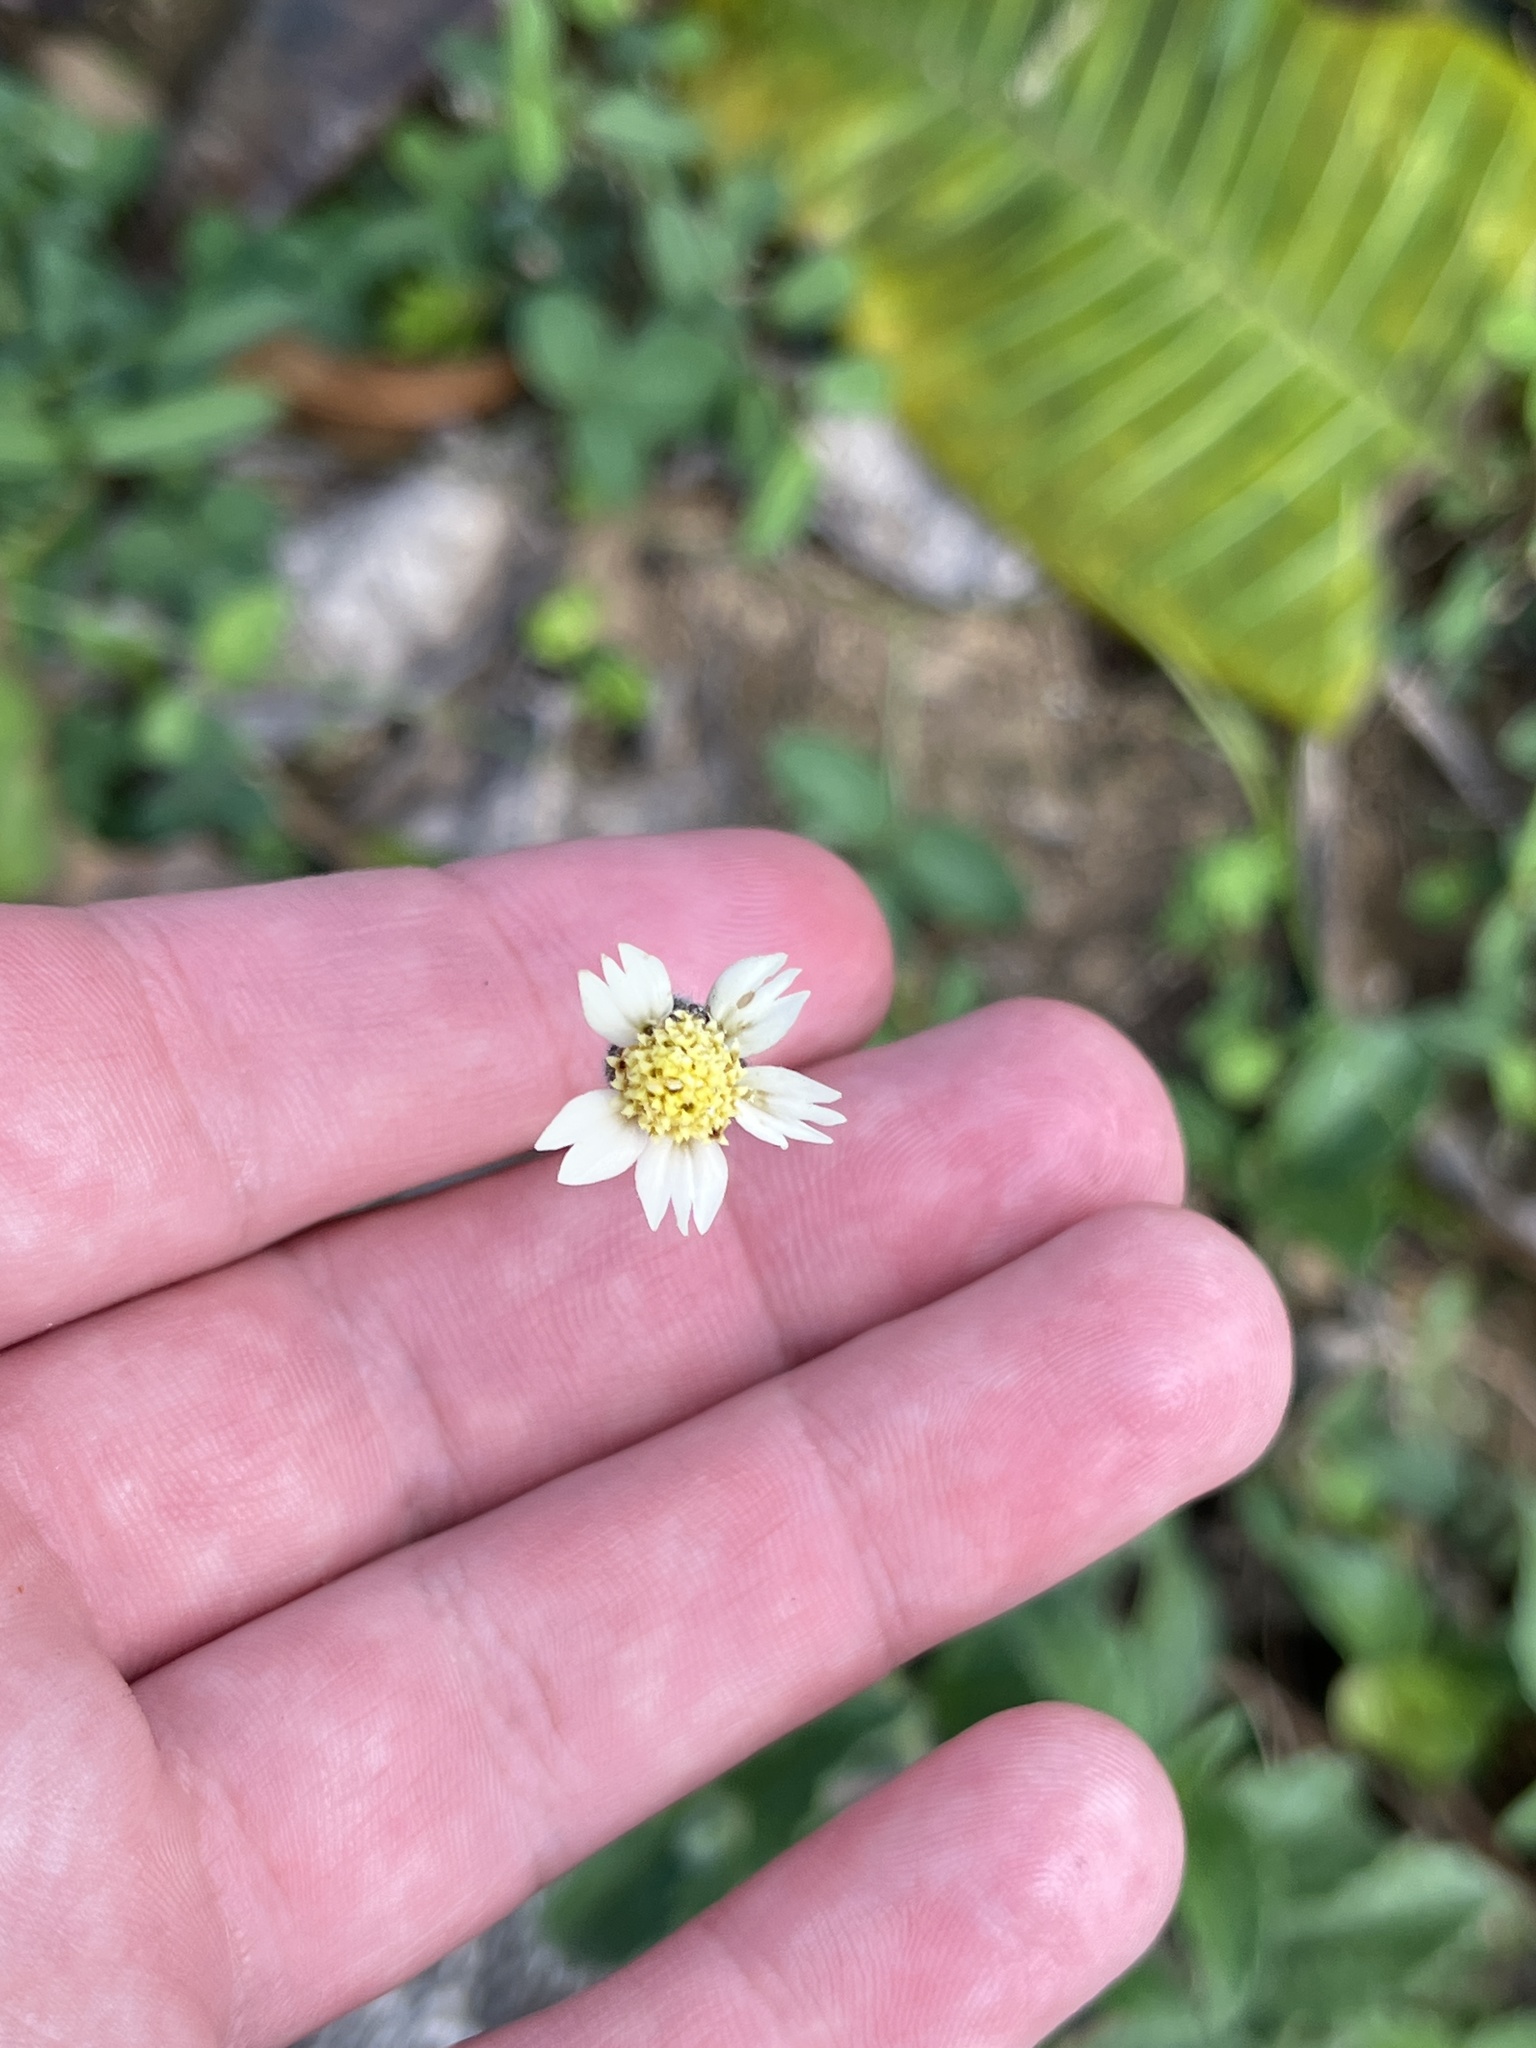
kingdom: Plantae
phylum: Tracheophyta
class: Magnoliopsida
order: Asterales
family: Asteraceae
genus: Tridax
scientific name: Tridax procumbens
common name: Coatbuttons
